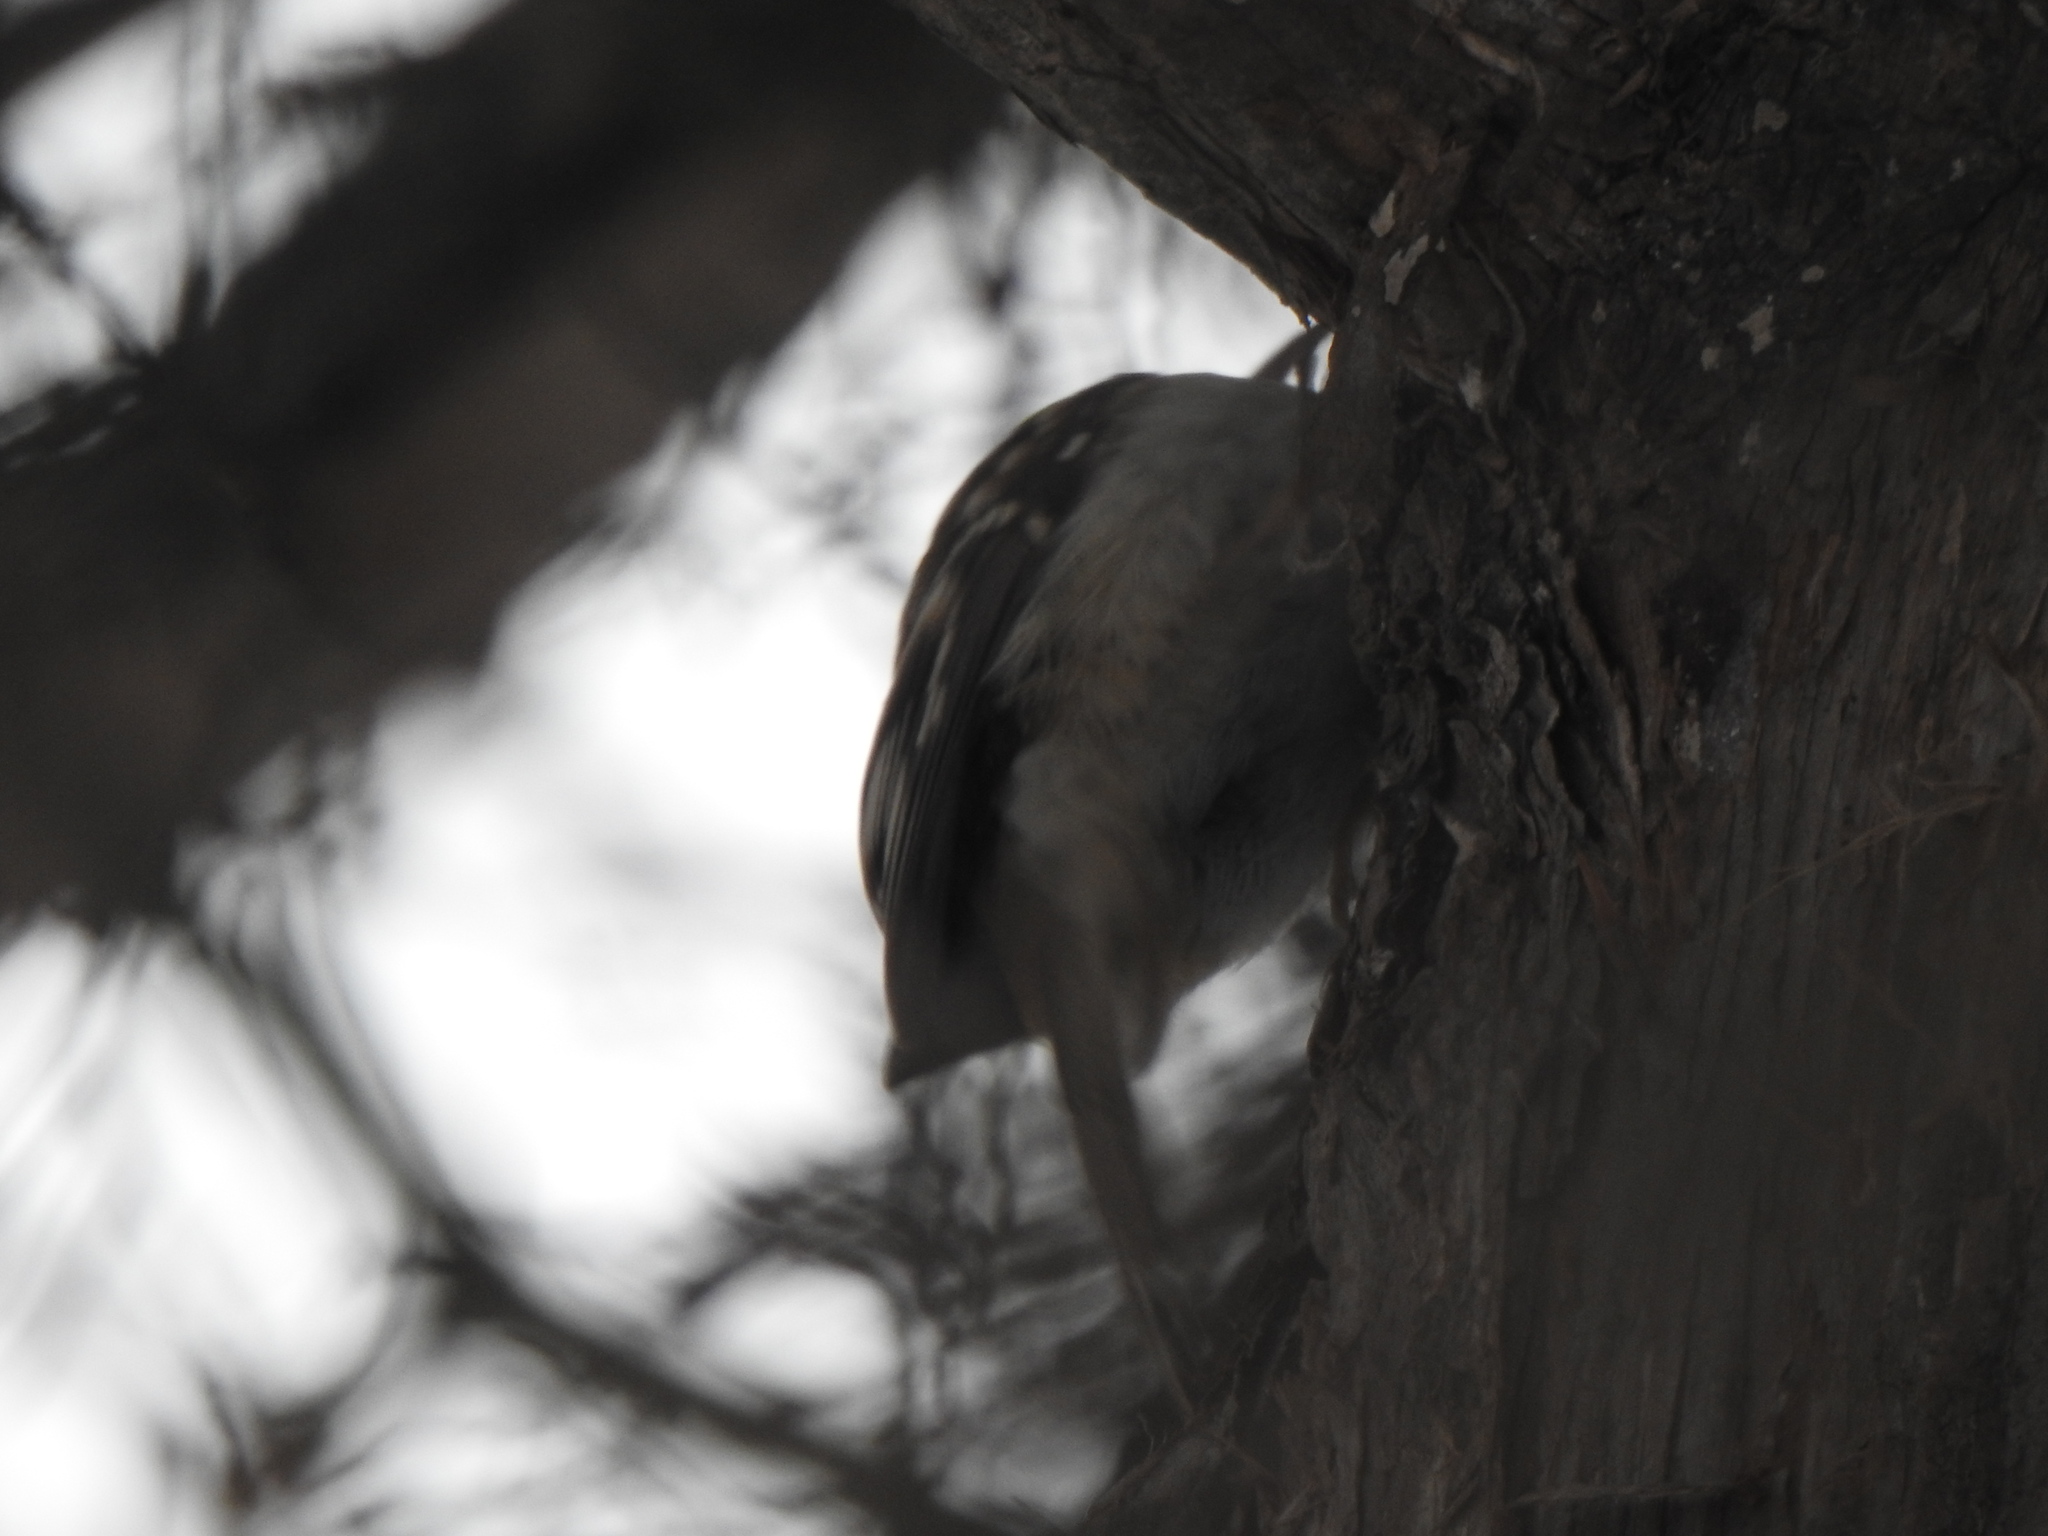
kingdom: Animalia
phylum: Chordata
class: Aves
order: Passeriformes
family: Certhiidae
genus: Certhia
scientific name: Certhia americana
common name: Brown creeper
